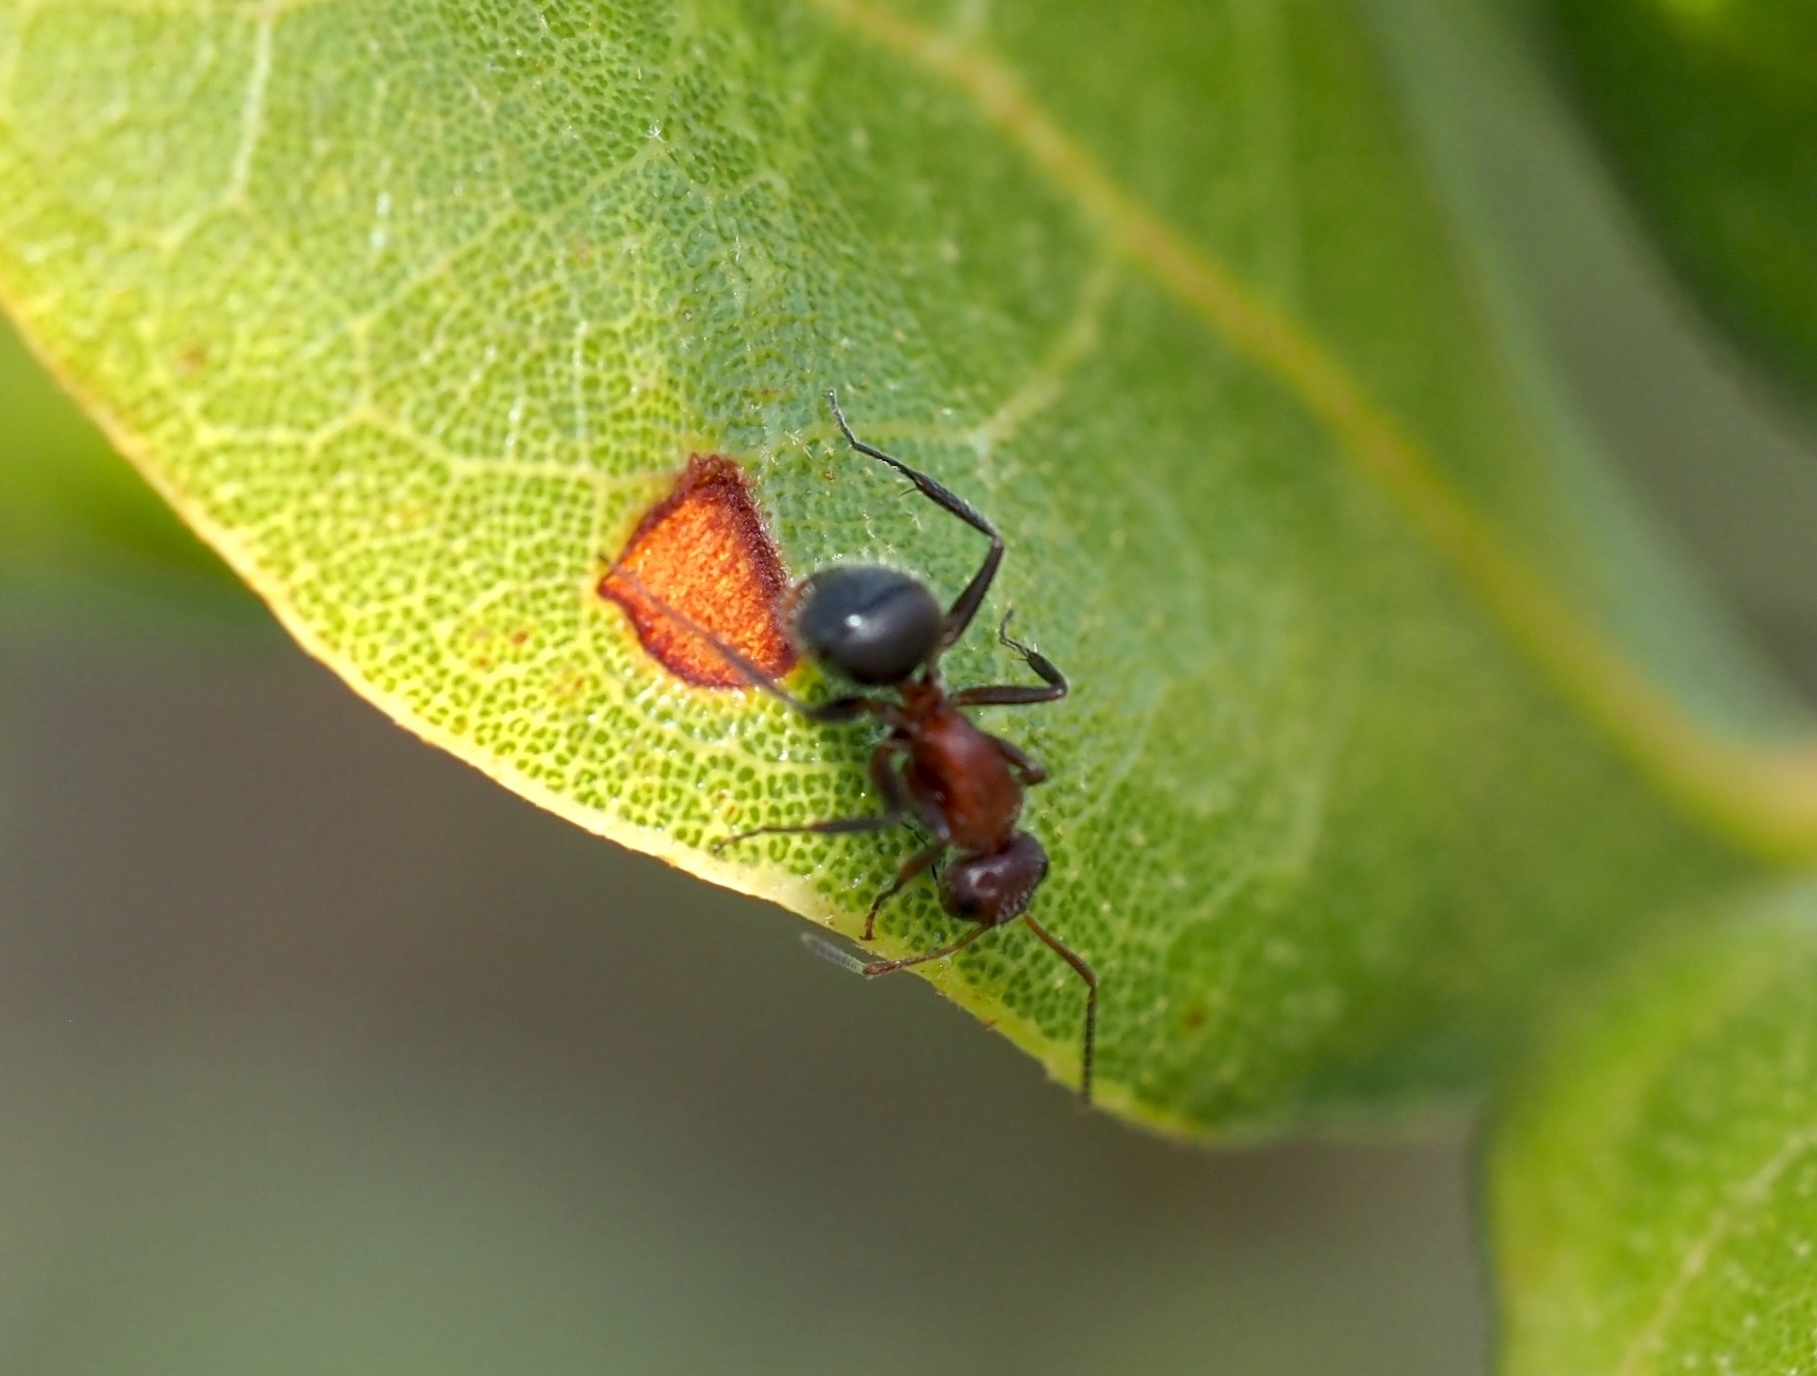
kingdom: Animalia
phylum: Arthropoda
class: Insecta
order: Hymenoptera
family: Formicidae
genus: Camponotus
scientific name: Camponotus planatus
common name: Compact carpenter ant
